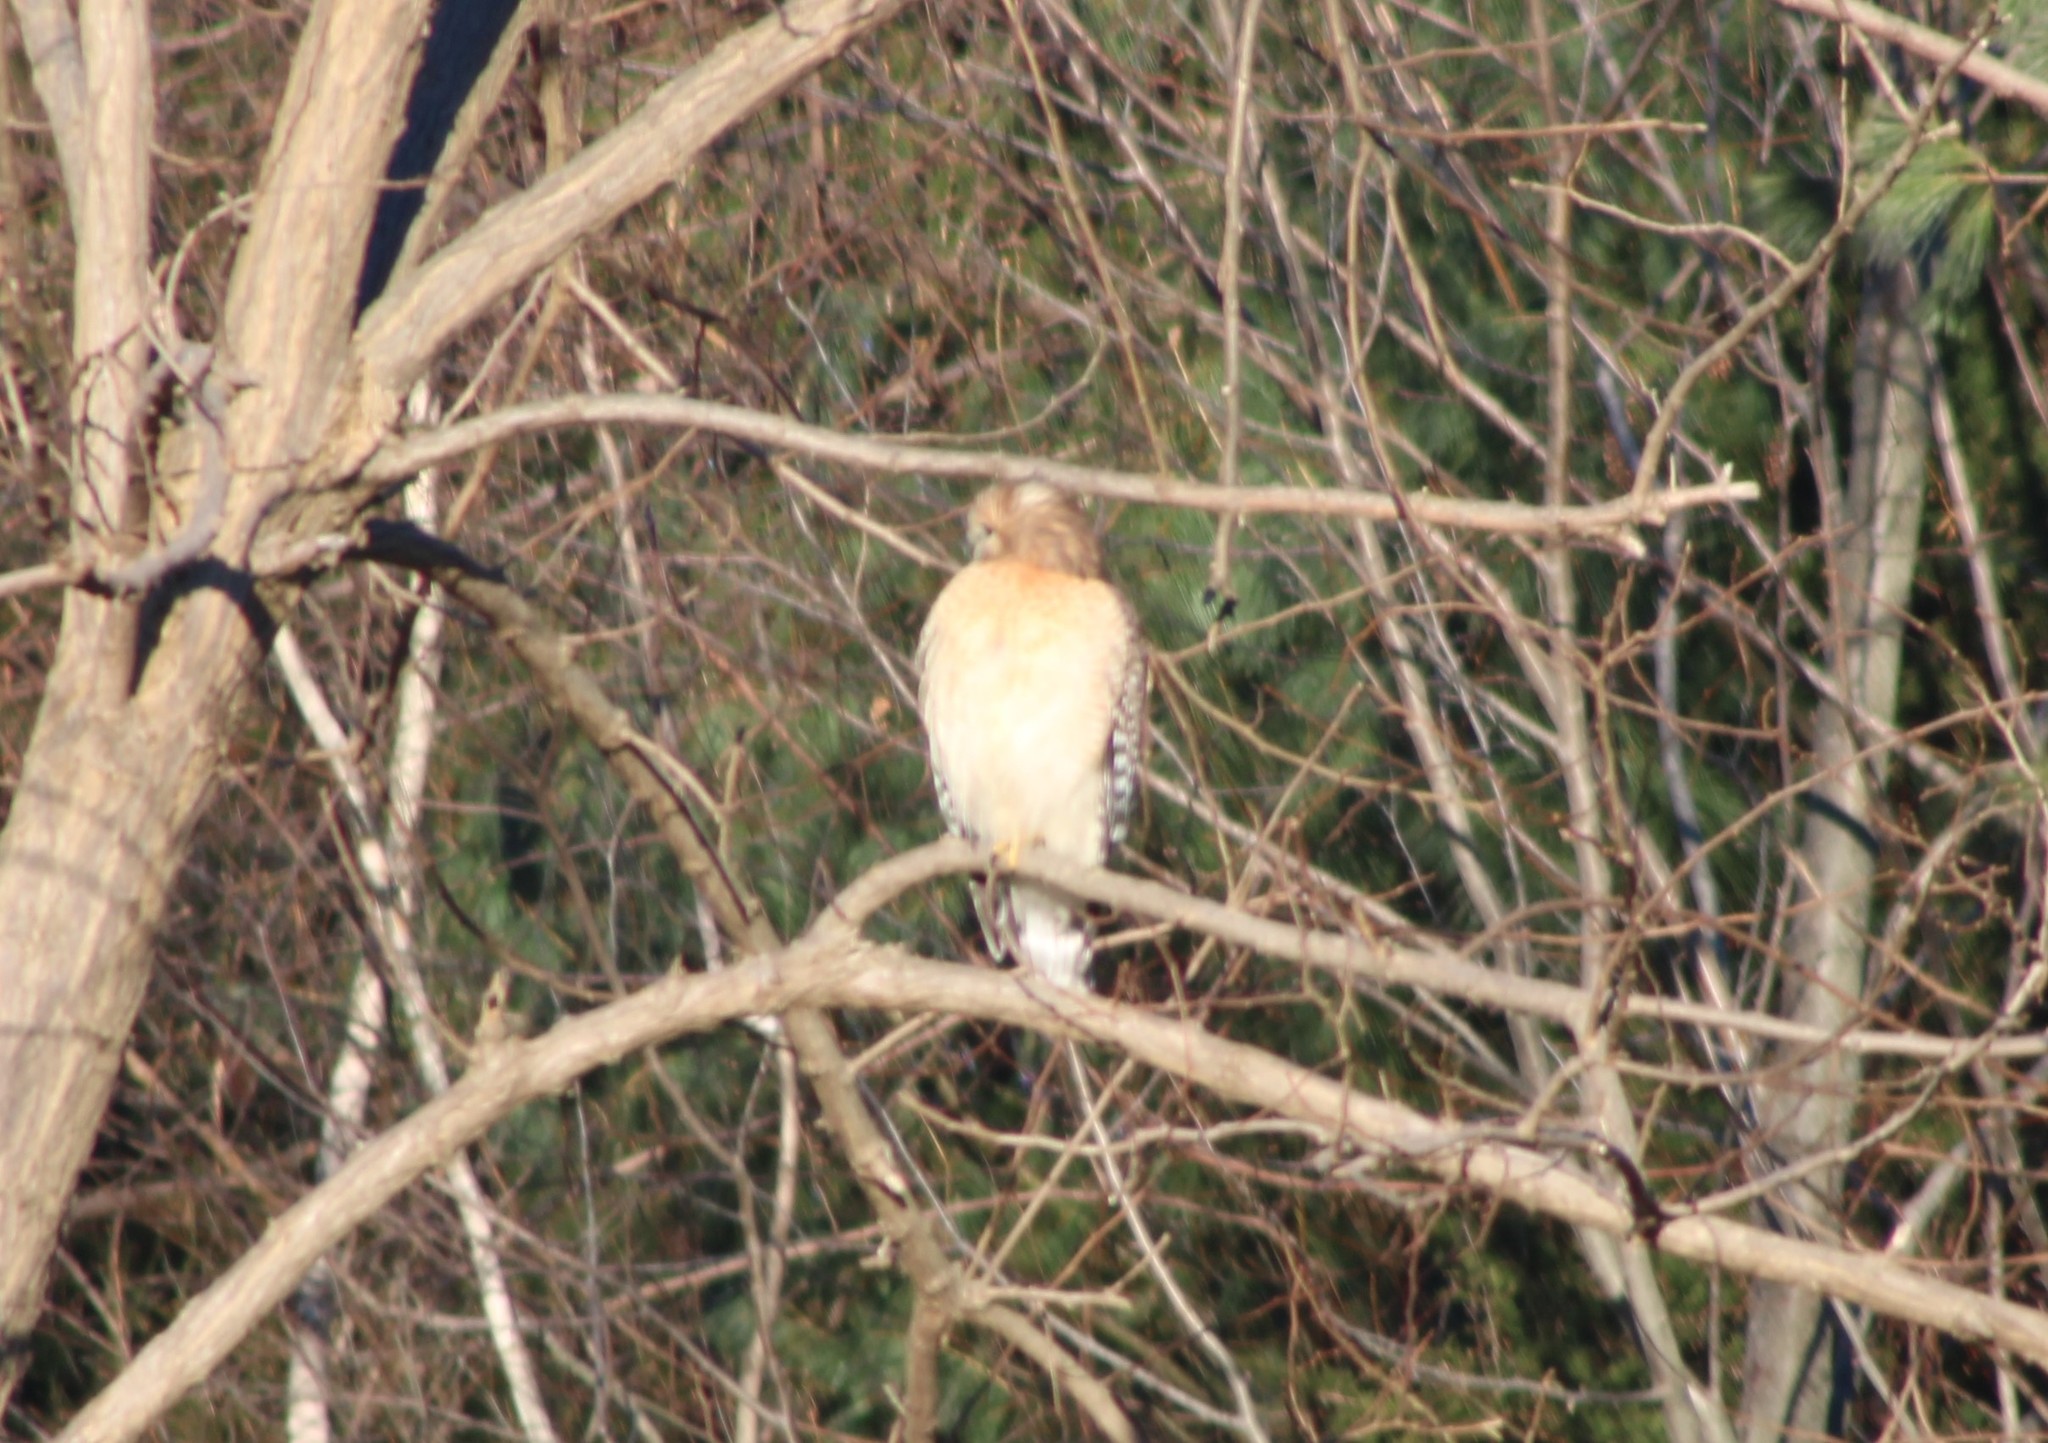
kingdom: Animalia
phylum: Chordata
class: Aves
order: Accipitriformes
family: Accipitridae
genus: Buteo
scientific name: Buteo lineatus
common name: Red-shouldered hawk
